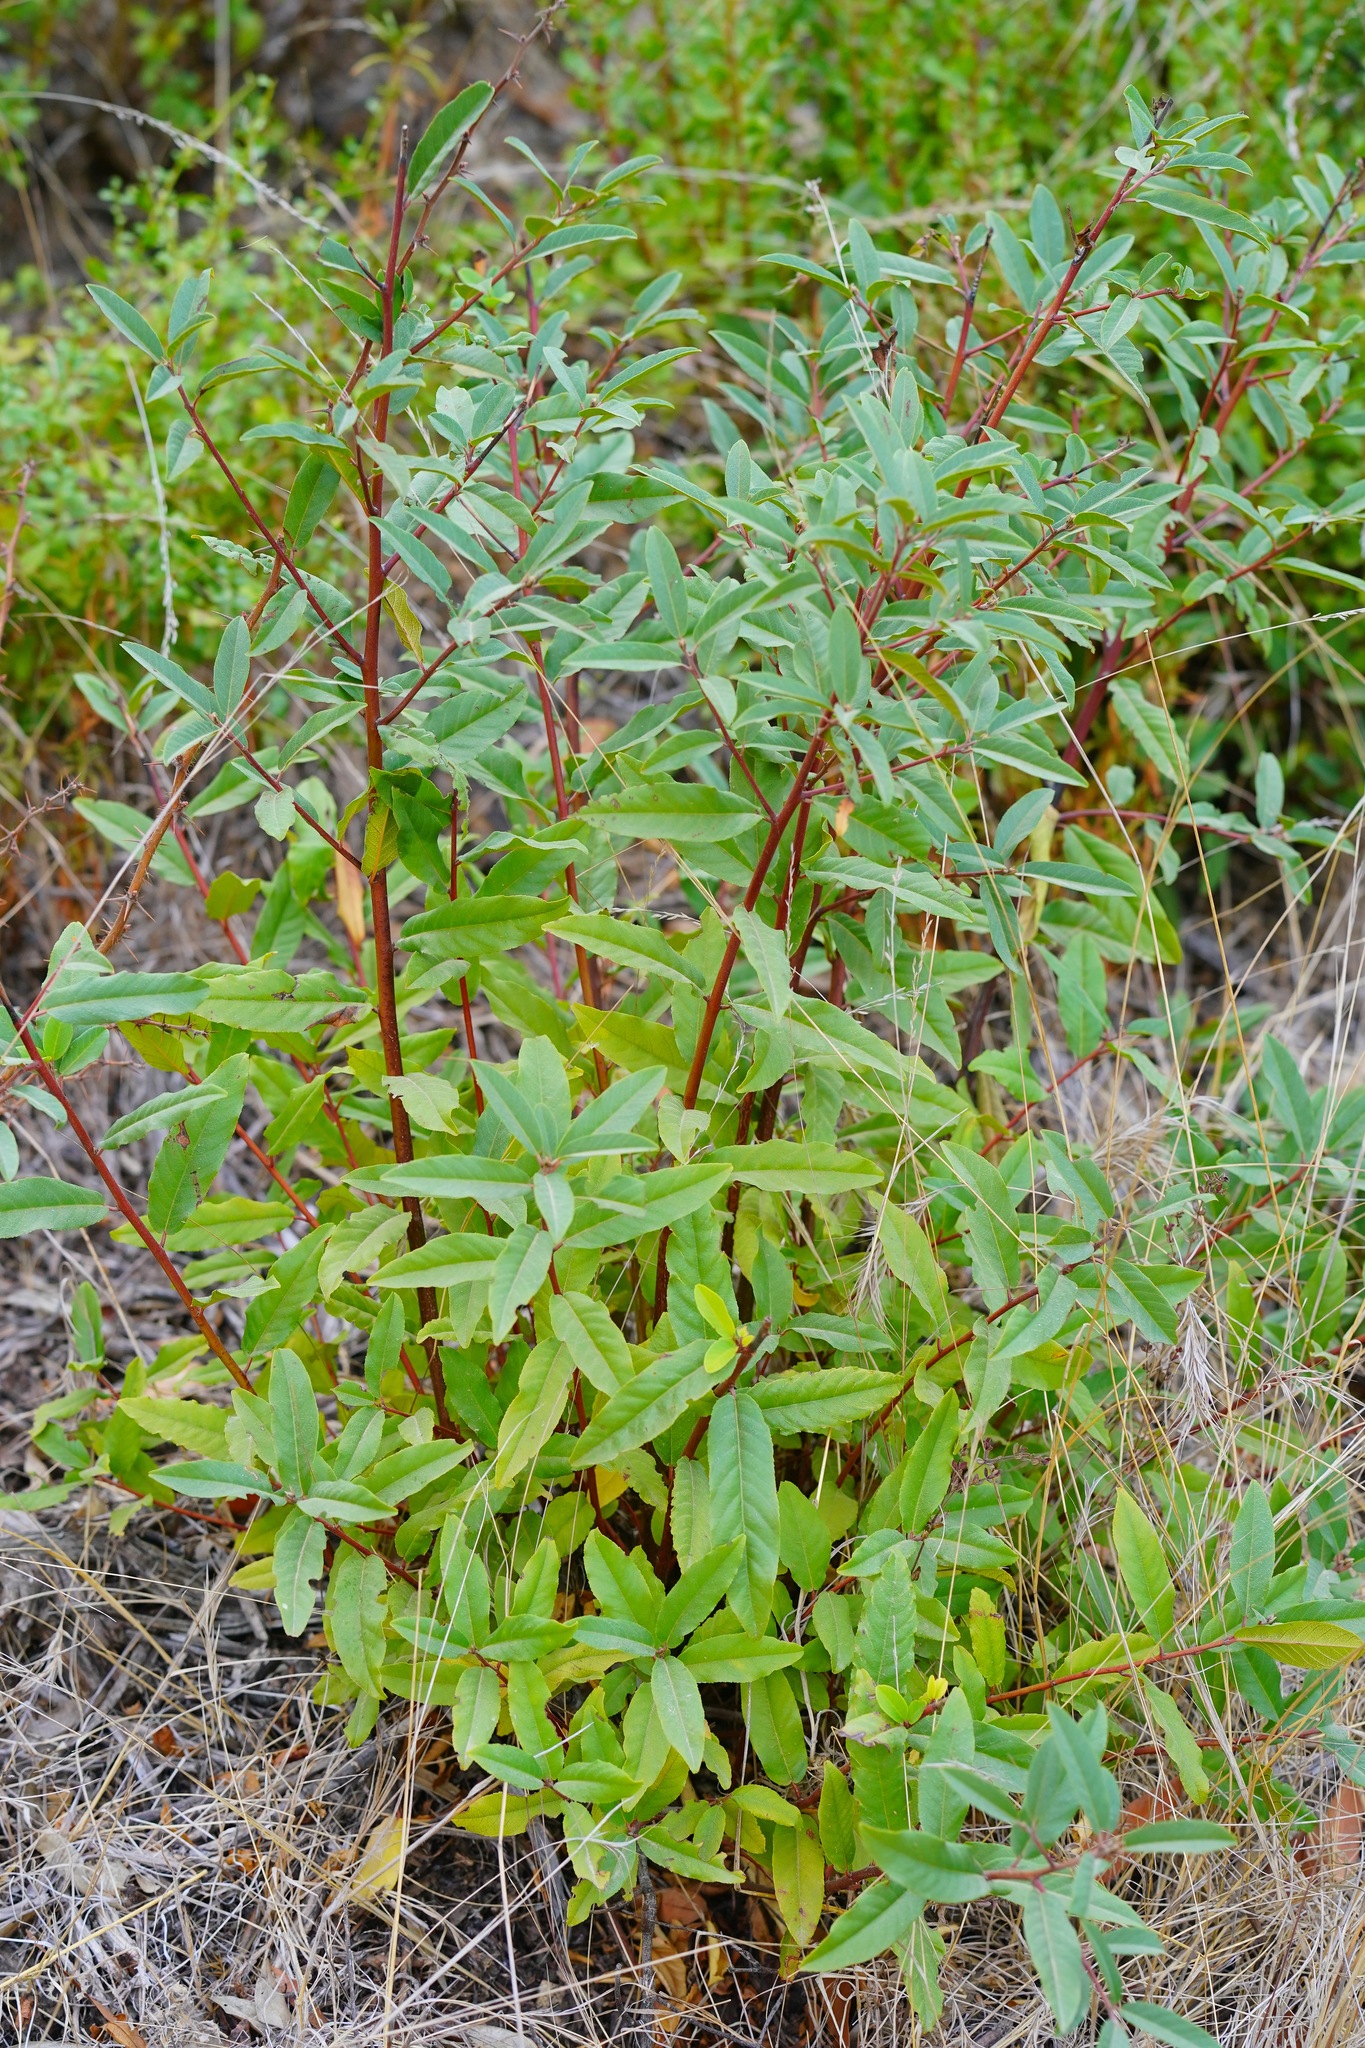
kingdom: Plantae
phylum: Tracheophyta
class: Magnoliopsida
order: Rosales
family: Rhamnaceae
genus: Frangula
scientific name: Frangula californica
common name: California buckthorn
